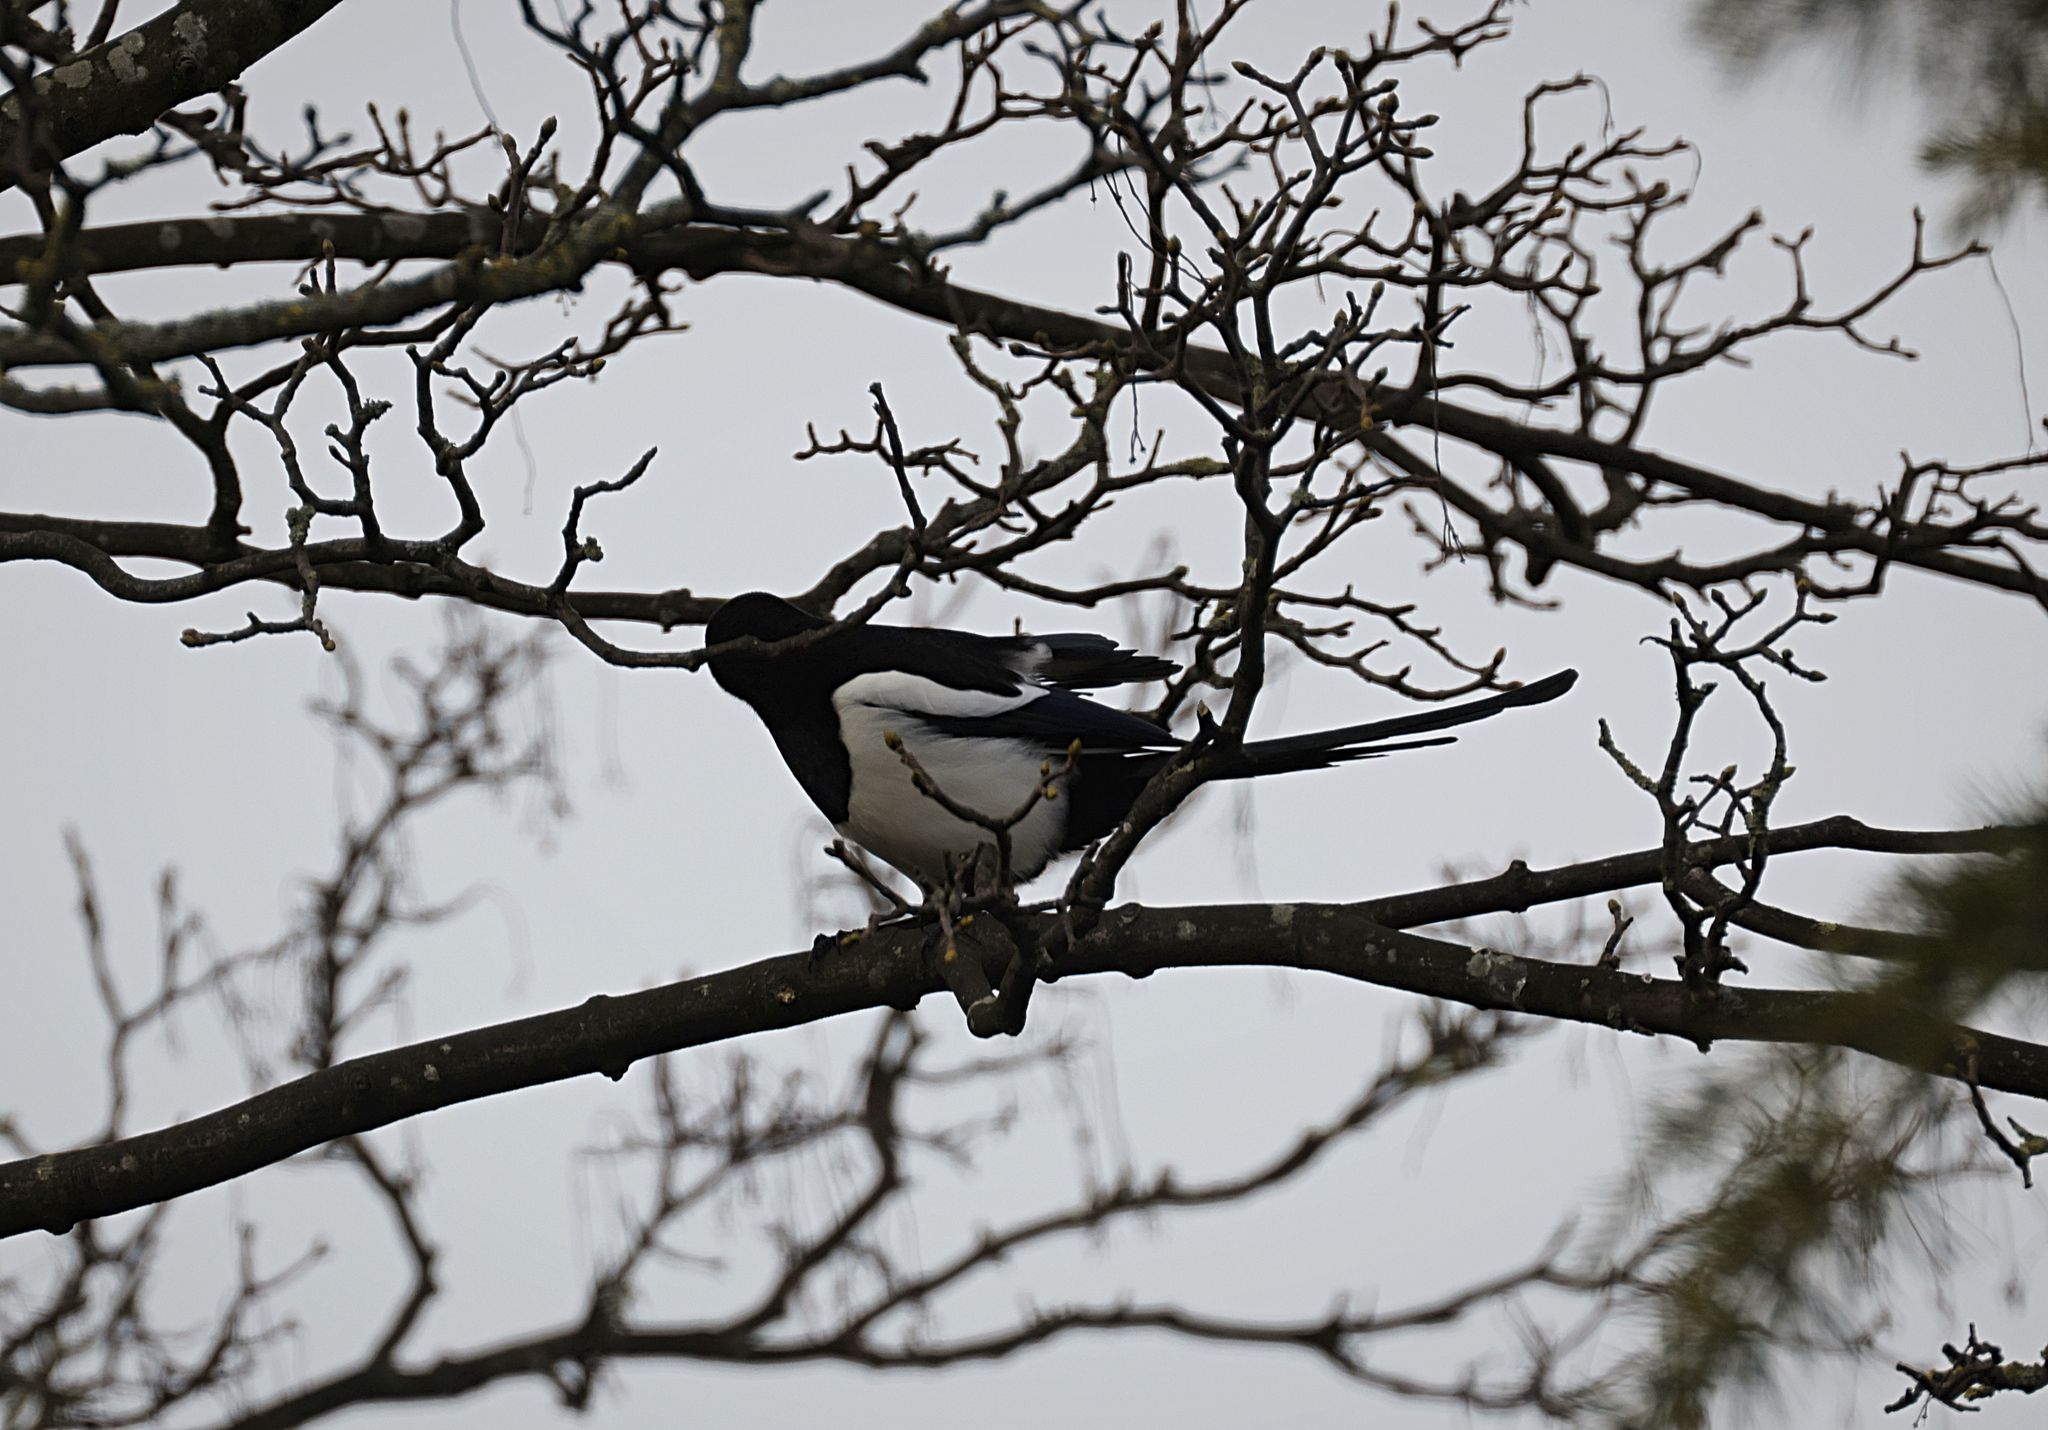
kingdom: Animalia
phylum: Chordata
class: Aves
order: Passeriformes
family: Corvidae
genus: Pica
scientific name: Pica pica
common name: Eurasian magpie
